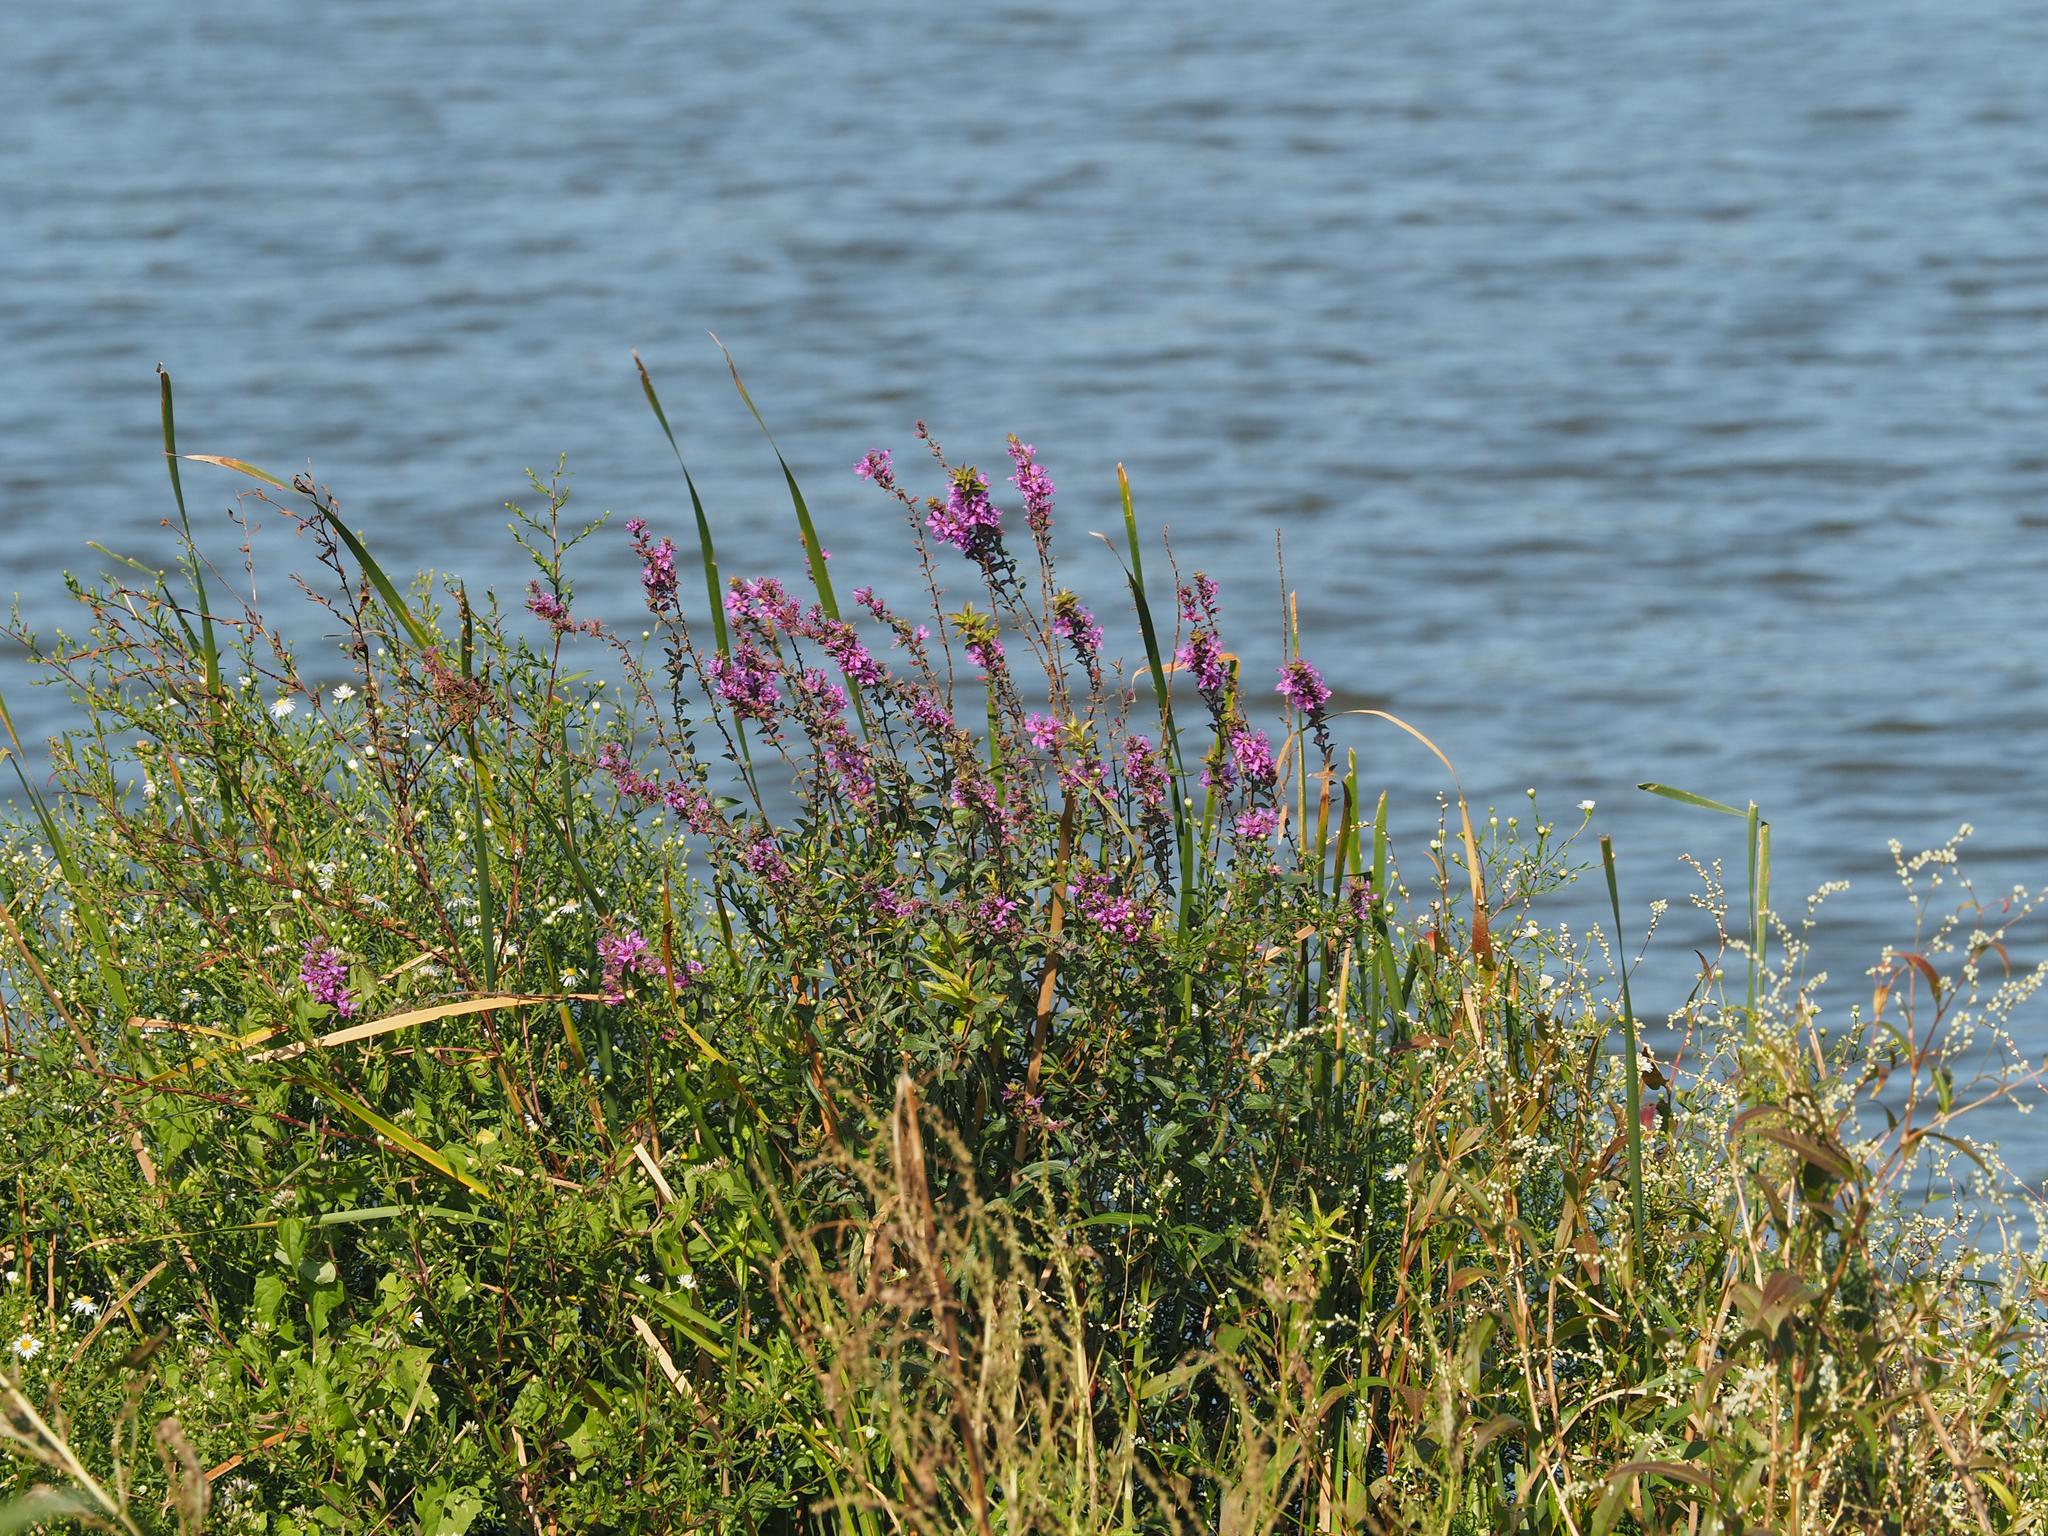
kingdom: Plantae
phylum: Tracheophyta
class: Magnoliopsida
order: Myrtales
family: Lythraceae
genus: Lythrum
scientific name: Lythrum salicaria
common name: Purple loosestrife
